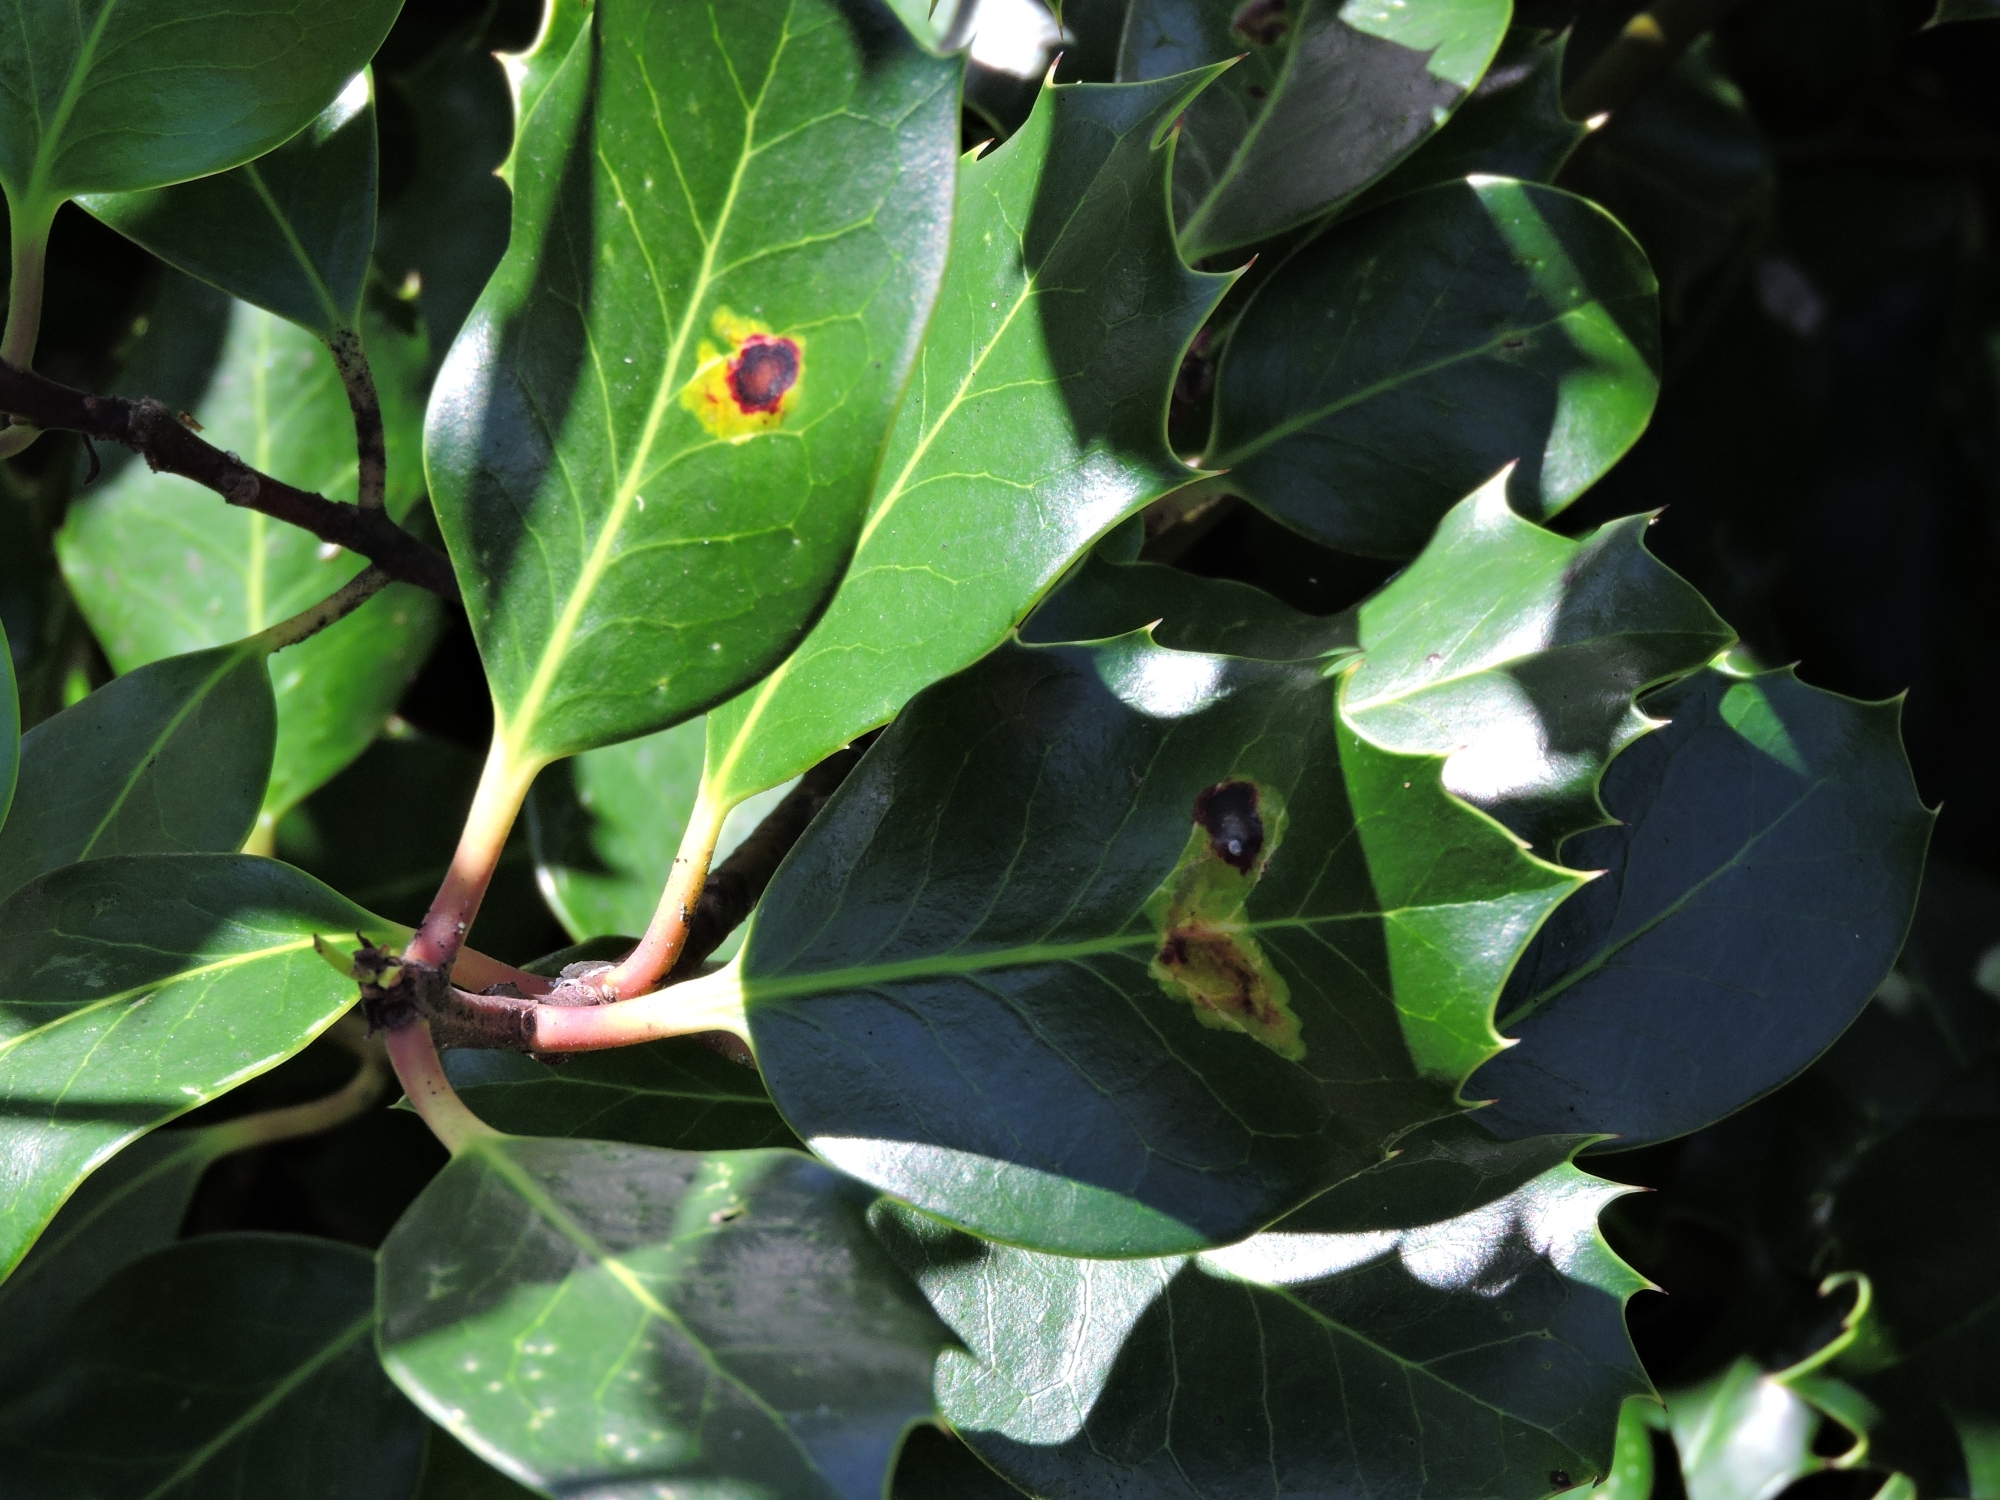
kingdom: Animalia
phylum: Arthropoda
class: Insecta
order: Diptera
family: Agromyzidae
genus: Phytomyza
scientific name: Phytomyza ilicis
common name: Holly leafminer
